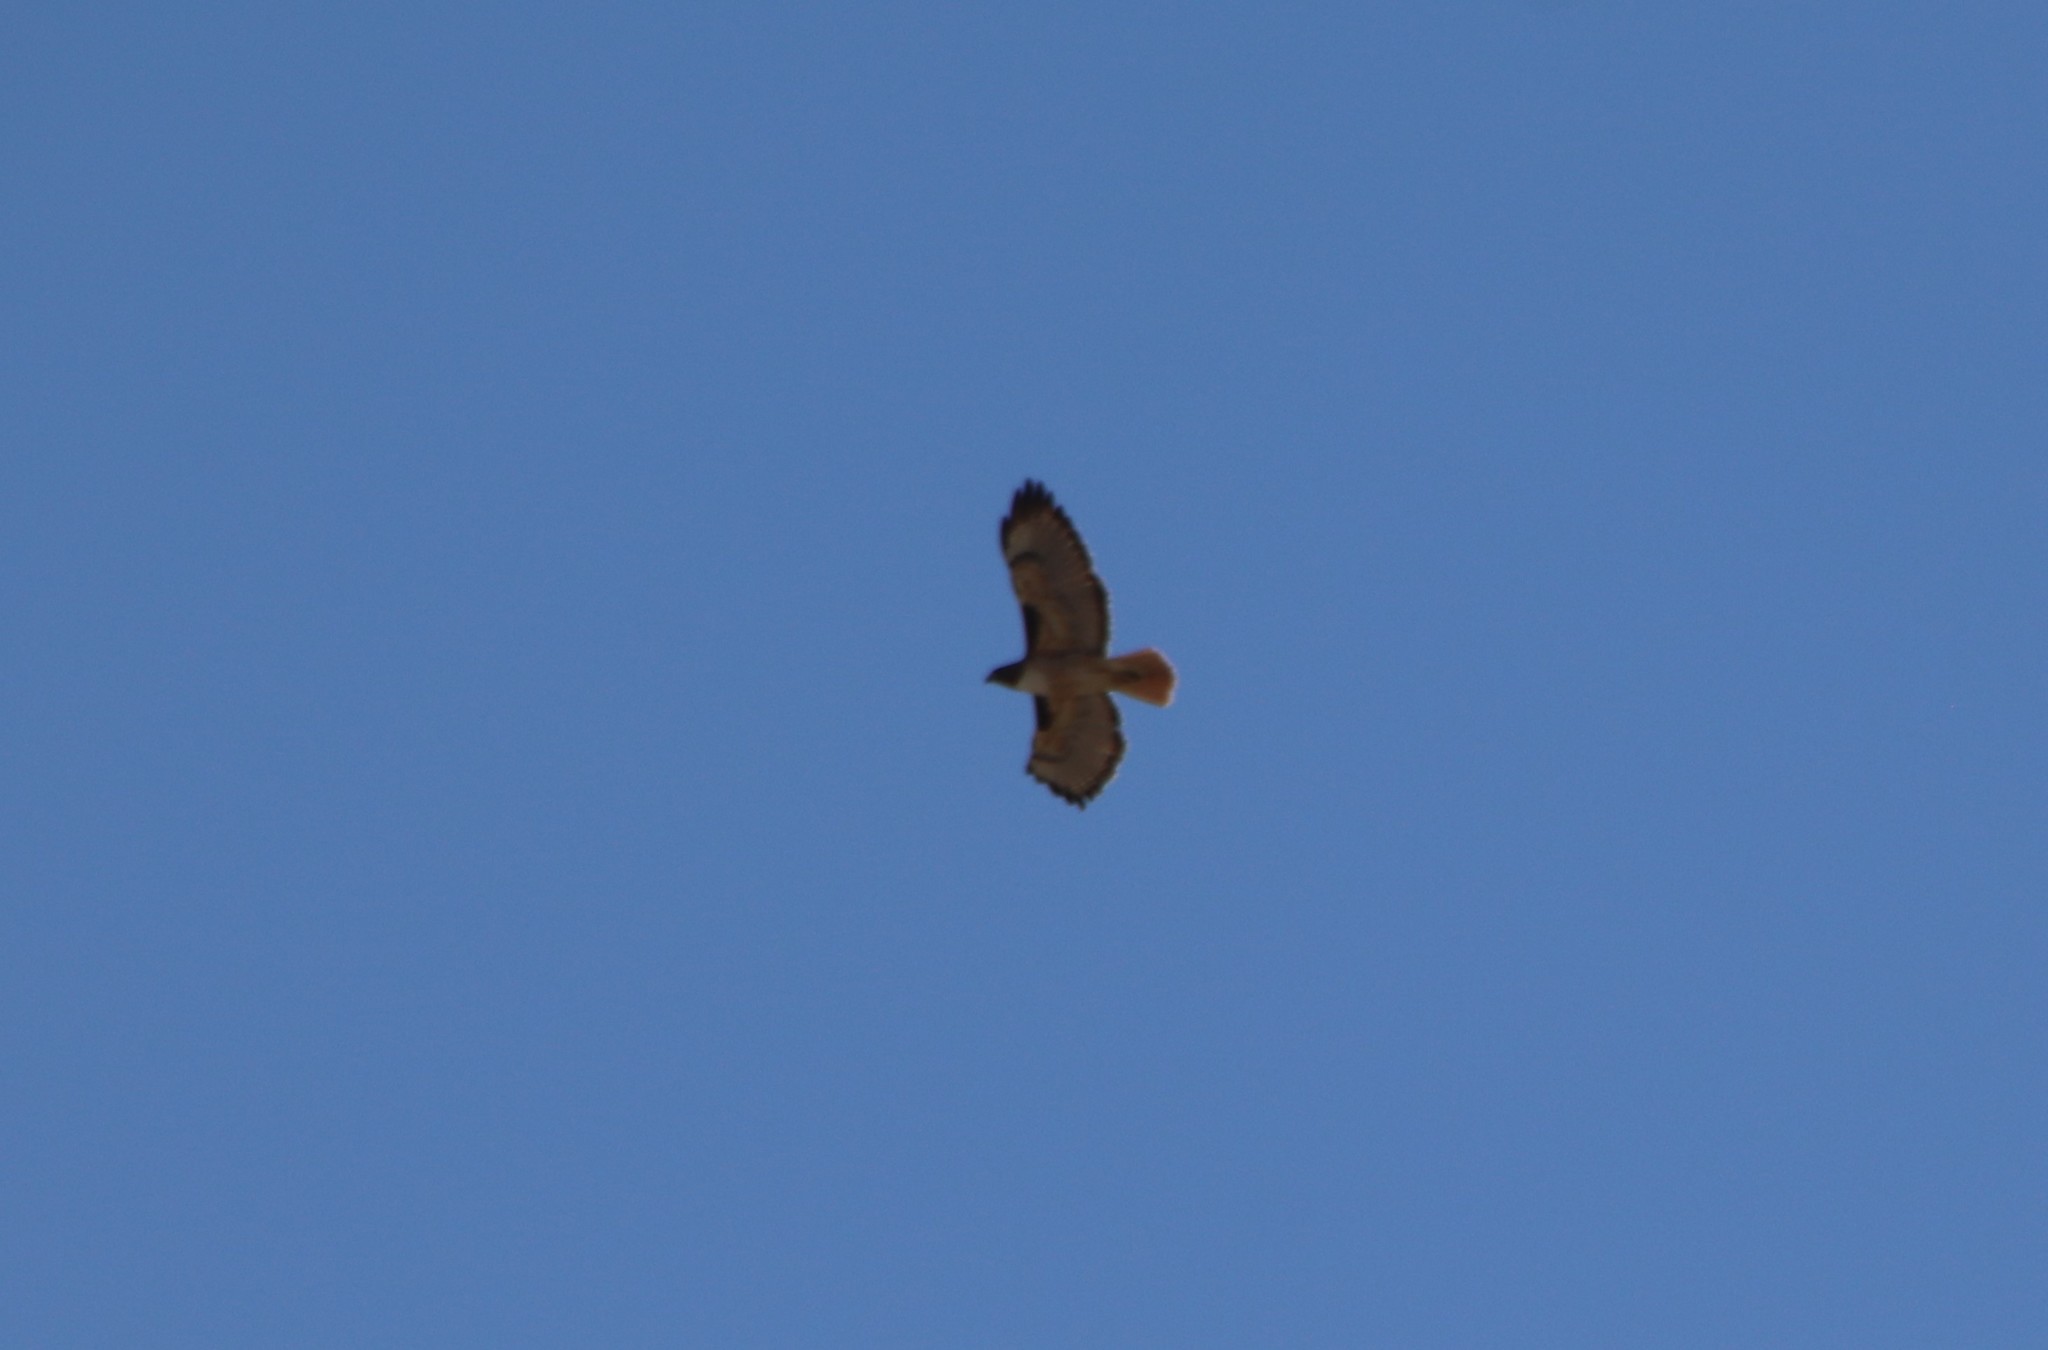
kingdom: Animalia
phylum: Chordata
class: Aves
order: Accipitriformes
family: Accipitridae
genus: Buteo
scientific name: Buteo jamaicensis
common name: Red-tailed hawk
